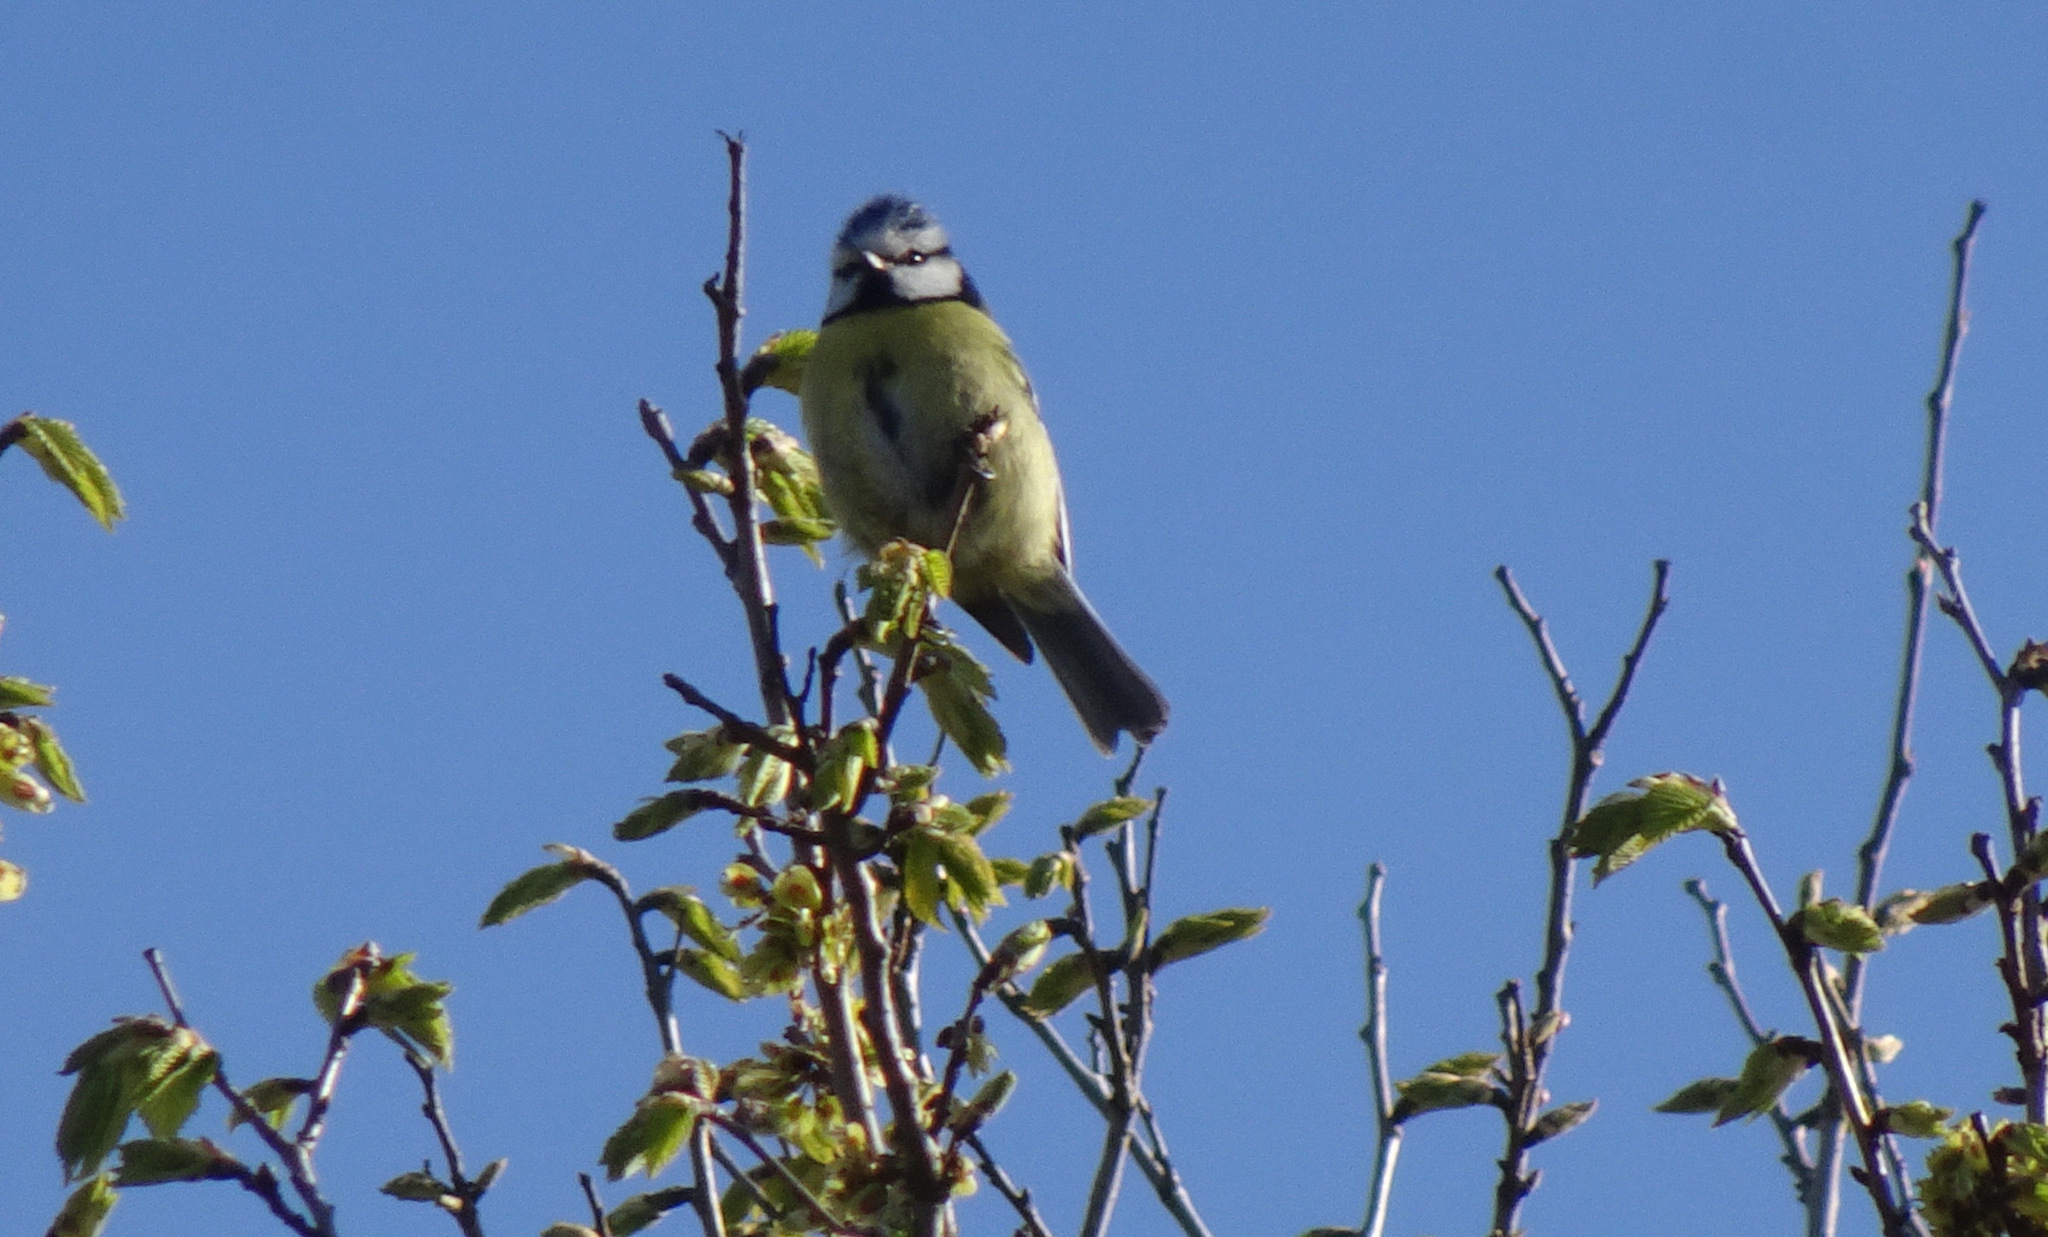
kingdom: Animalia
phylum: Chordata
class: Aves
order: Passeriformes
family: Paridae
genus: Cyanistes
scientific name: Cyanistes caeruleus
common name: Eurasian blue tit
